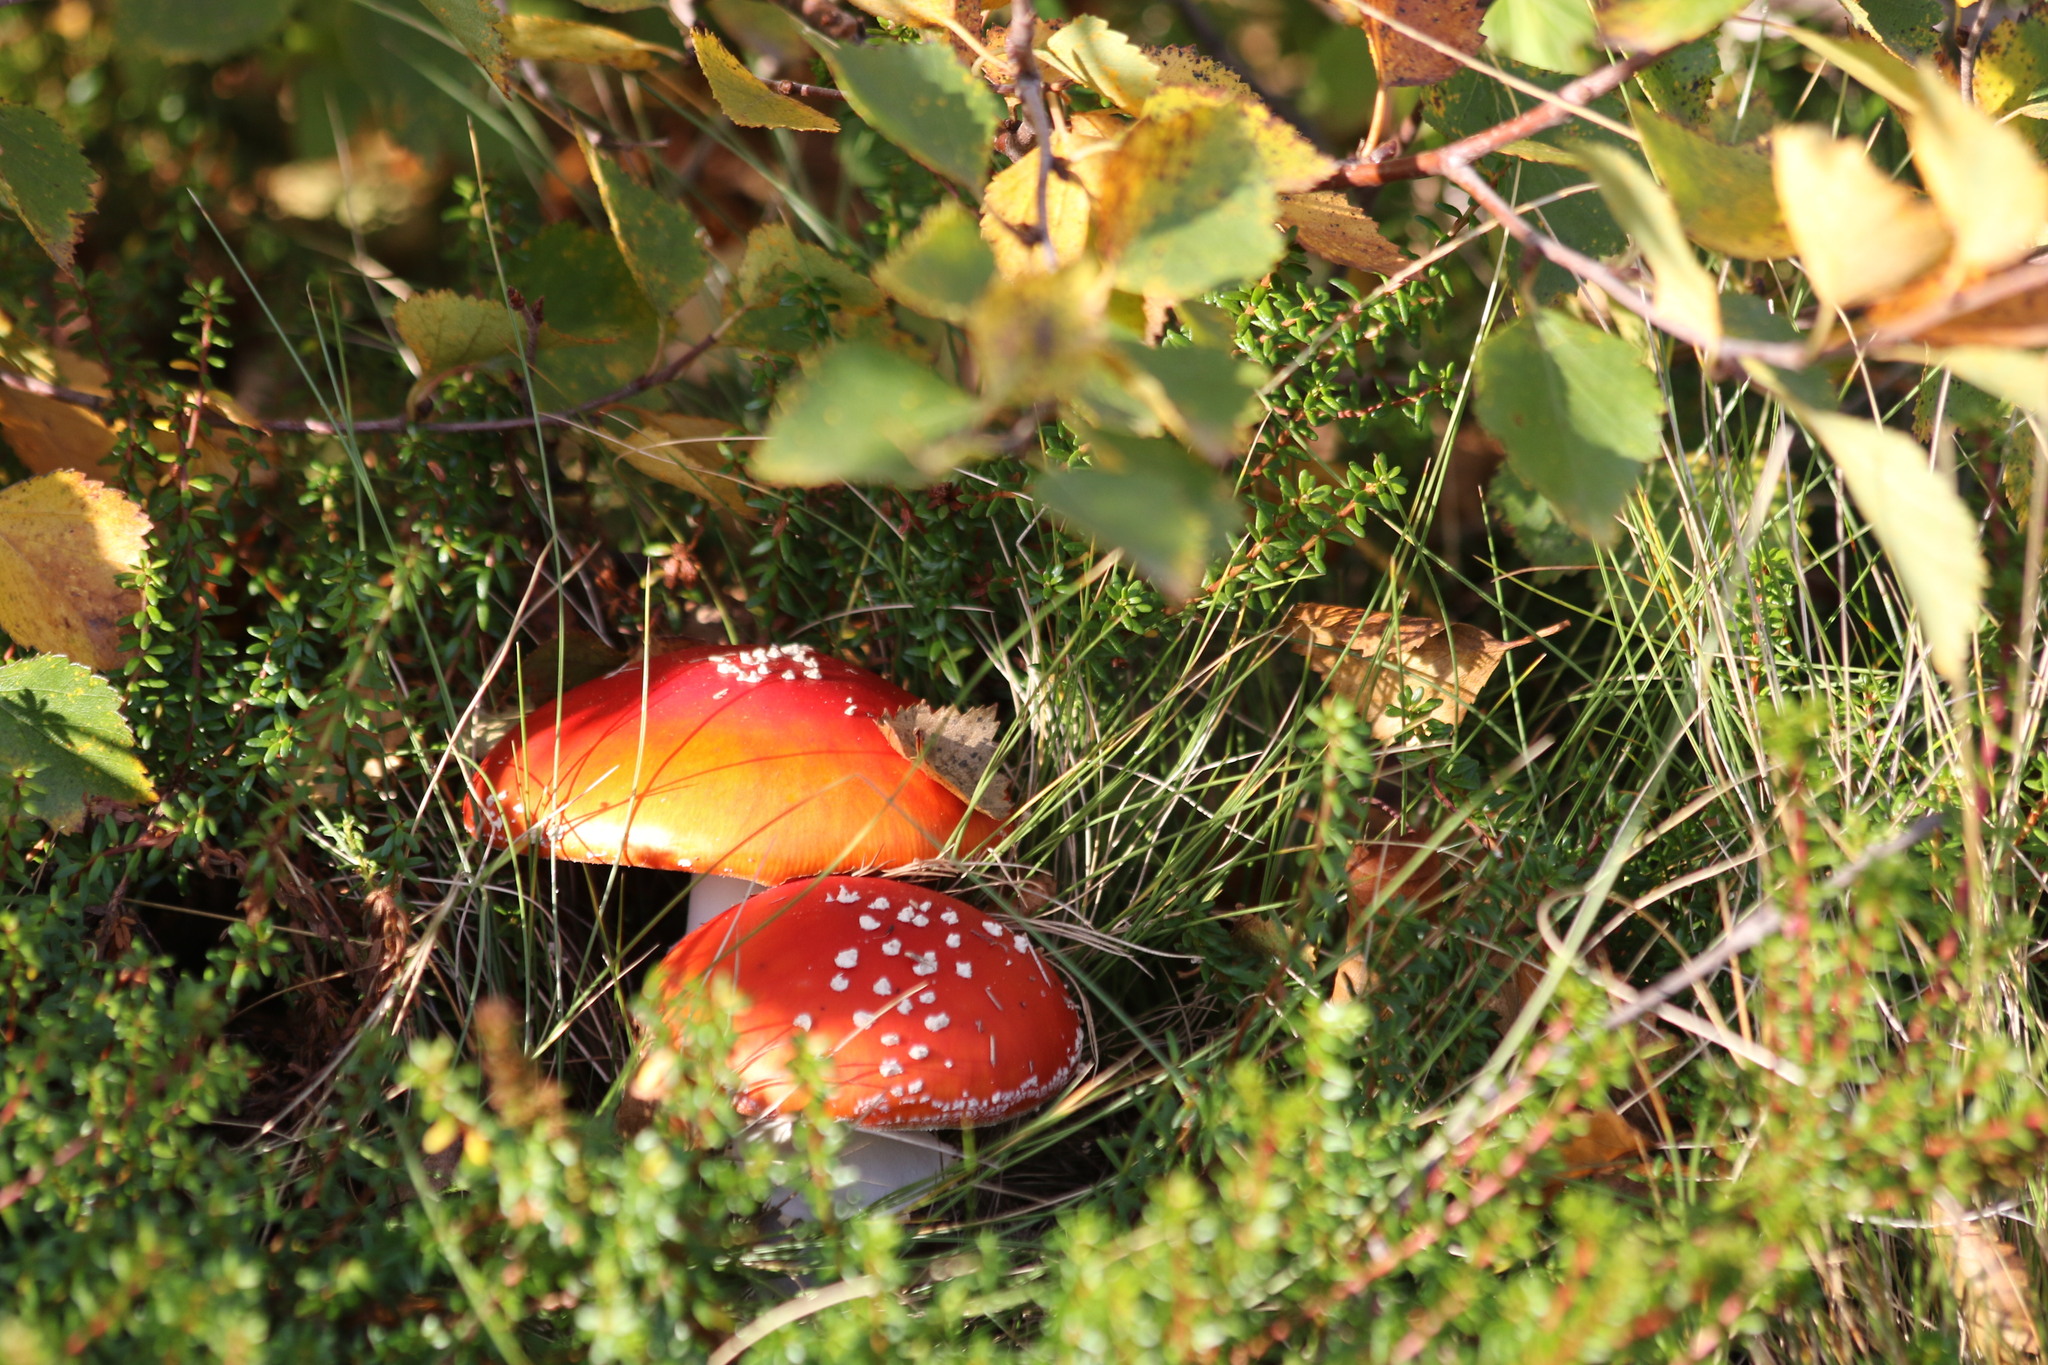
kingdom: Fungi
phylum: Basidiomycota
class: Agaricomycetes
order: Agaricales
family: Amanitaceae
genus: Amanita
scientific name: Amanita muscaria
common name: Fly agaric
